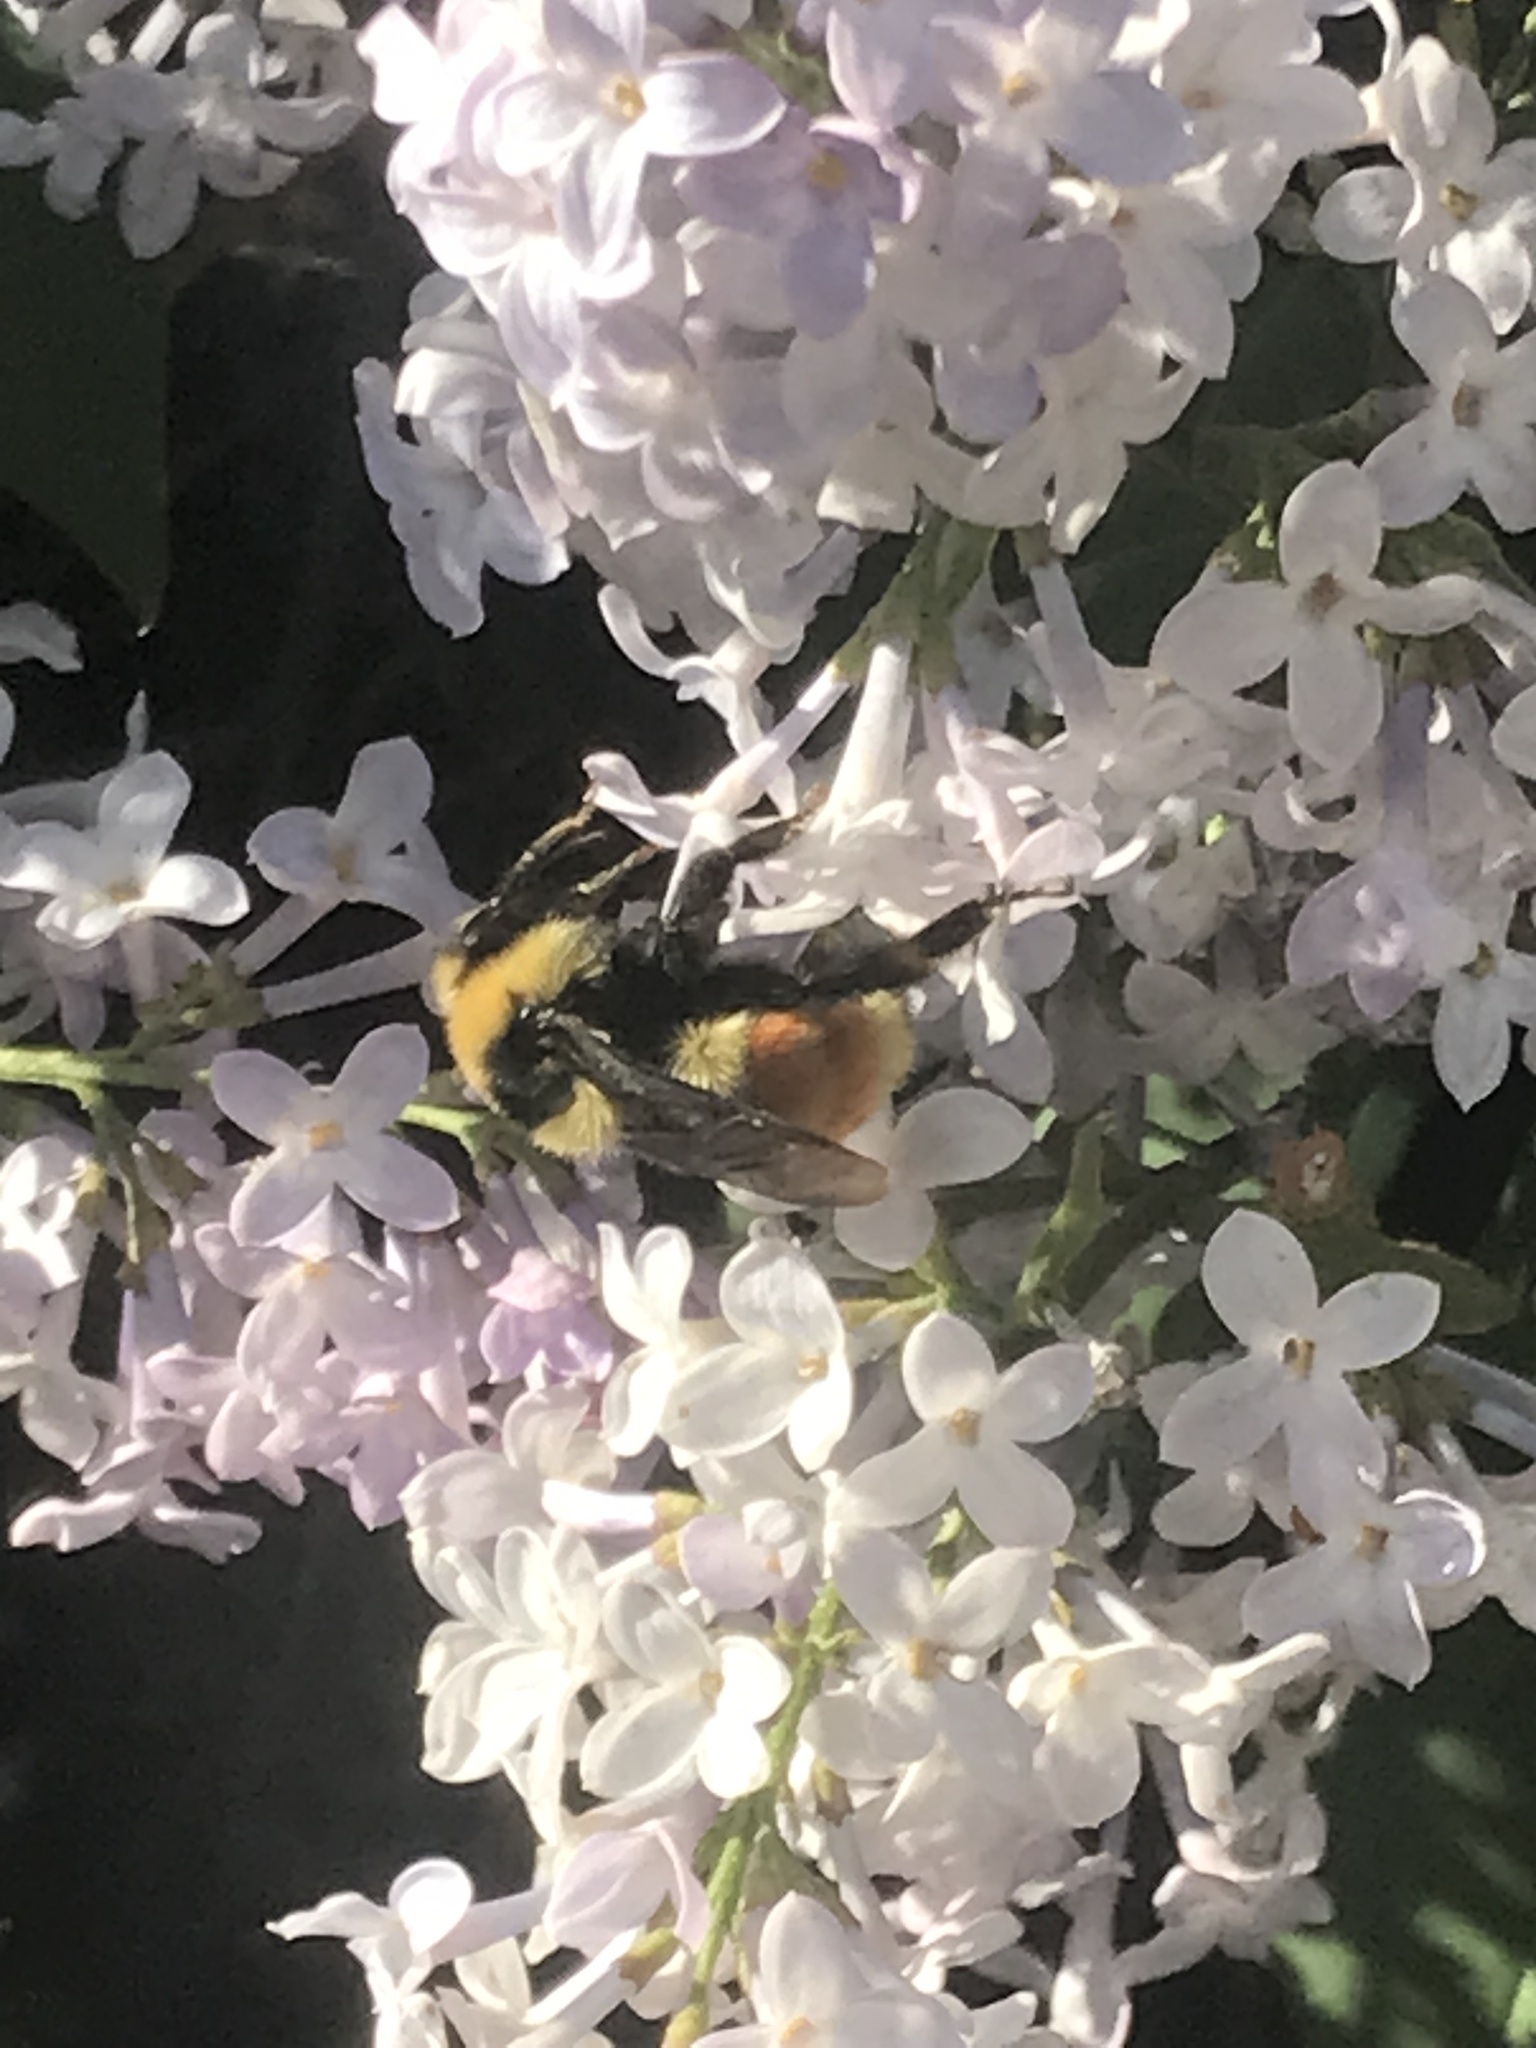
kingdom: Animalia
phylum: Arthropoda
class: Insecta
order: Hymenoptera
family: Apidae
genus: Bombus
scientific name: Bombus huntii
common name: Hunt bumble bee
